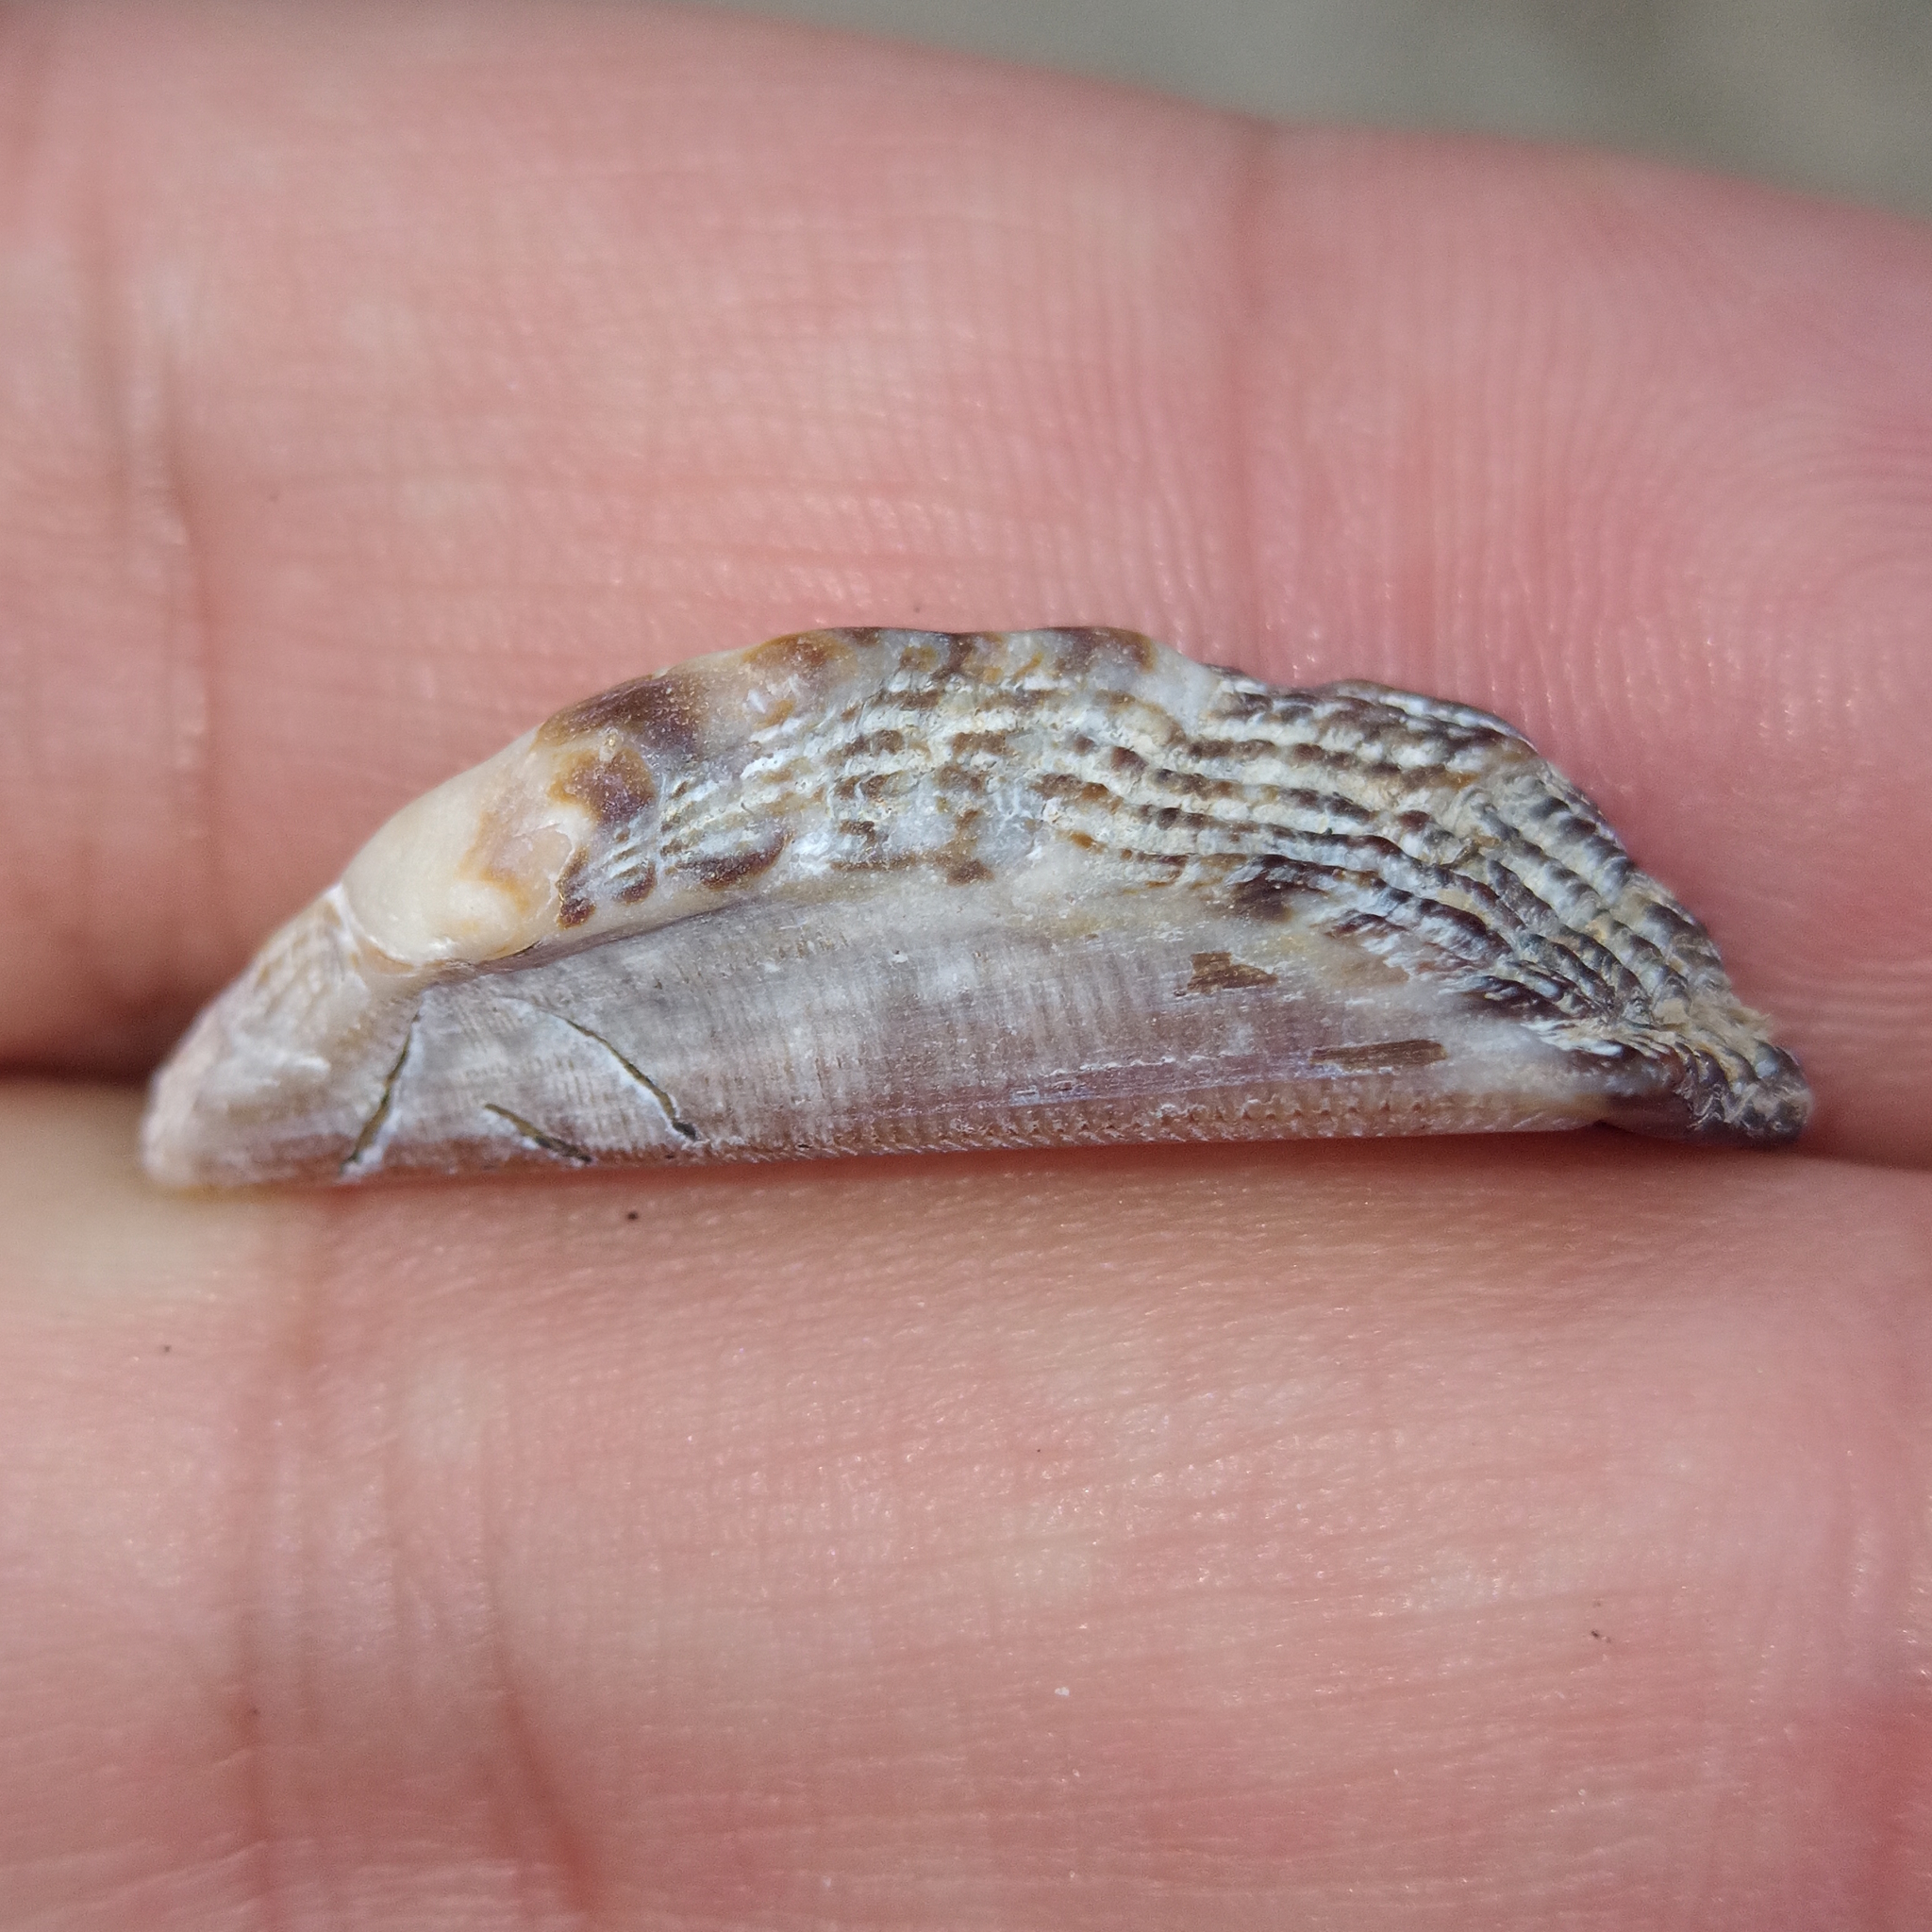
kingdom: Animalia
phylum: Mollusca
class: Bivalvia
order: Arcida
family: Arcidae
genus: Lamarcka
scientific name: Lamarcka imbricata
